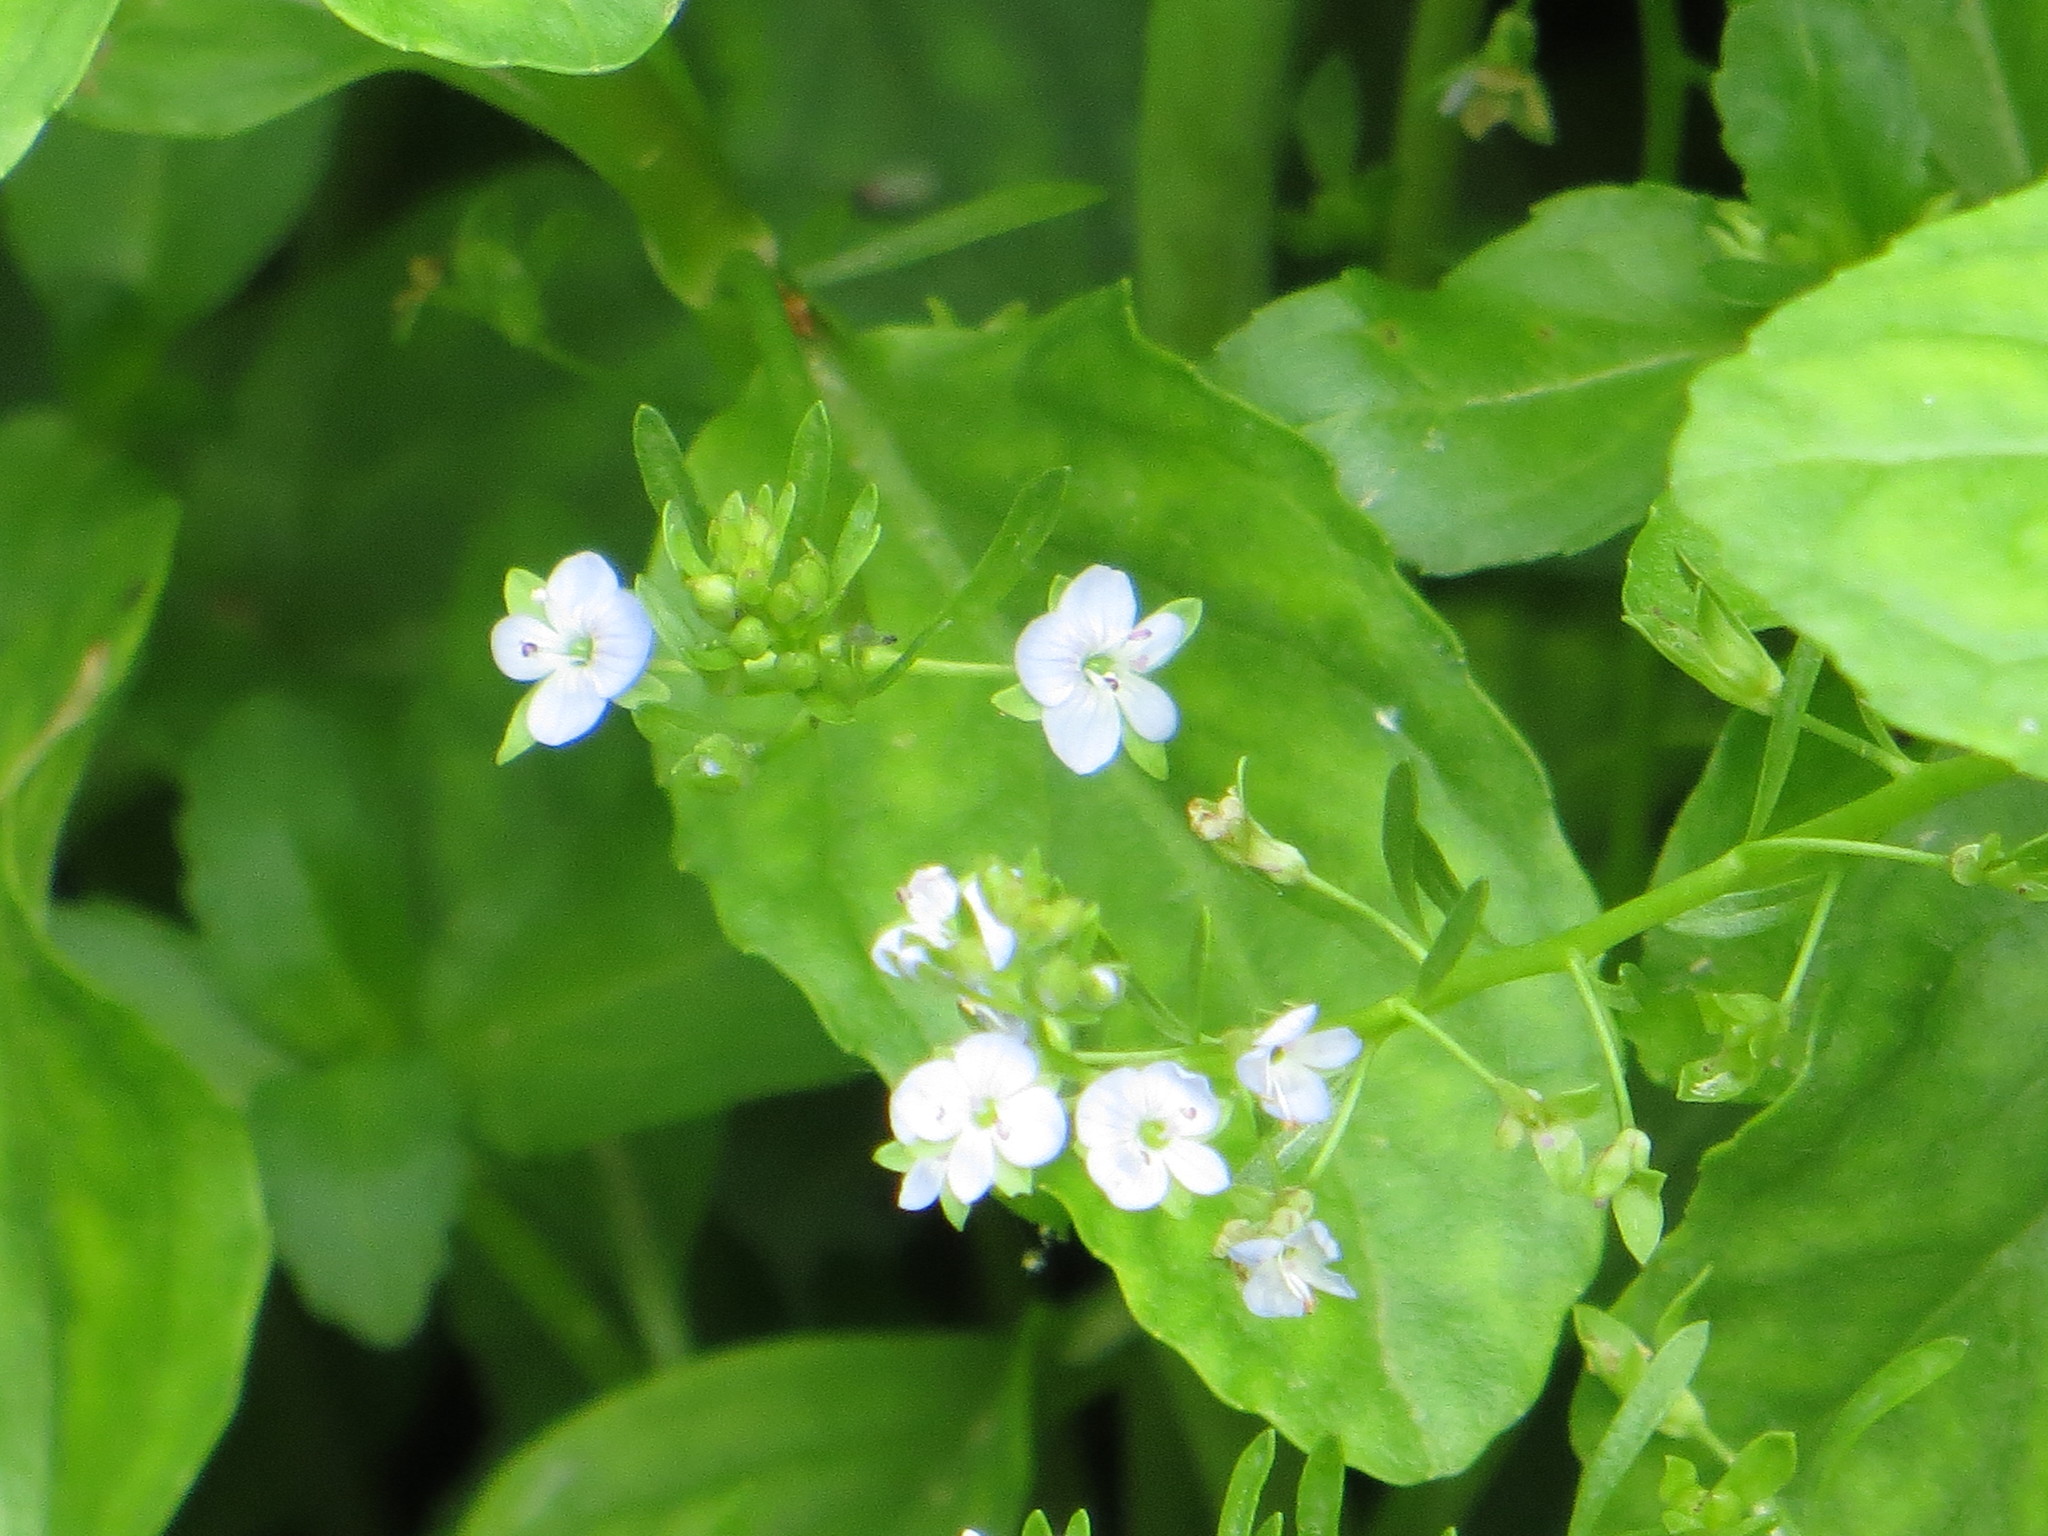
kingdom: Plantae
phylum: Tracheophyta
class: Magnoliopsida
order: Lamiales
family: Plantaginaceae
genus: Veronica
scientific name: Veronica beccabunga
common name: Brooklime
